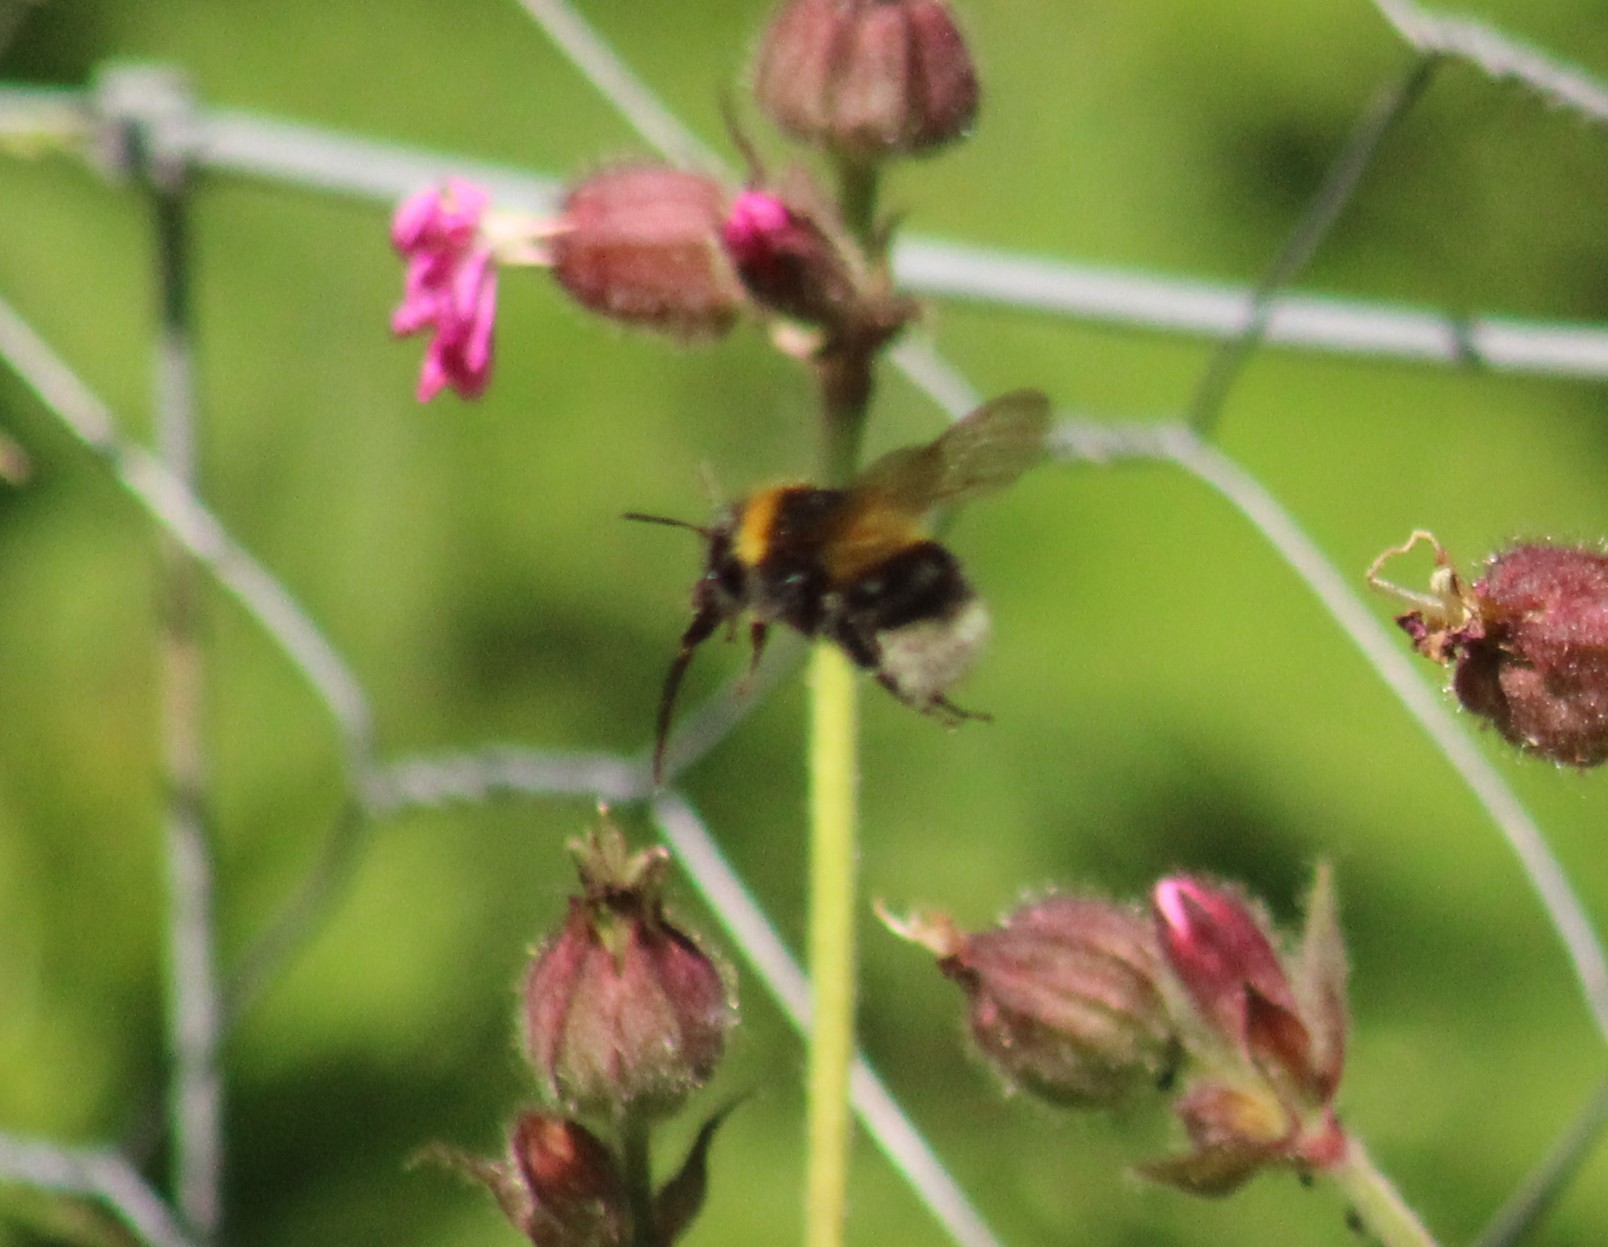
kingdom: Animalia
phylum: Arthropoda
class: Insecta
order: Hymenoptera
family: Apidae
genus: Bombus
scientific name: Bombus hortorum
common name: Garden bumblebee
